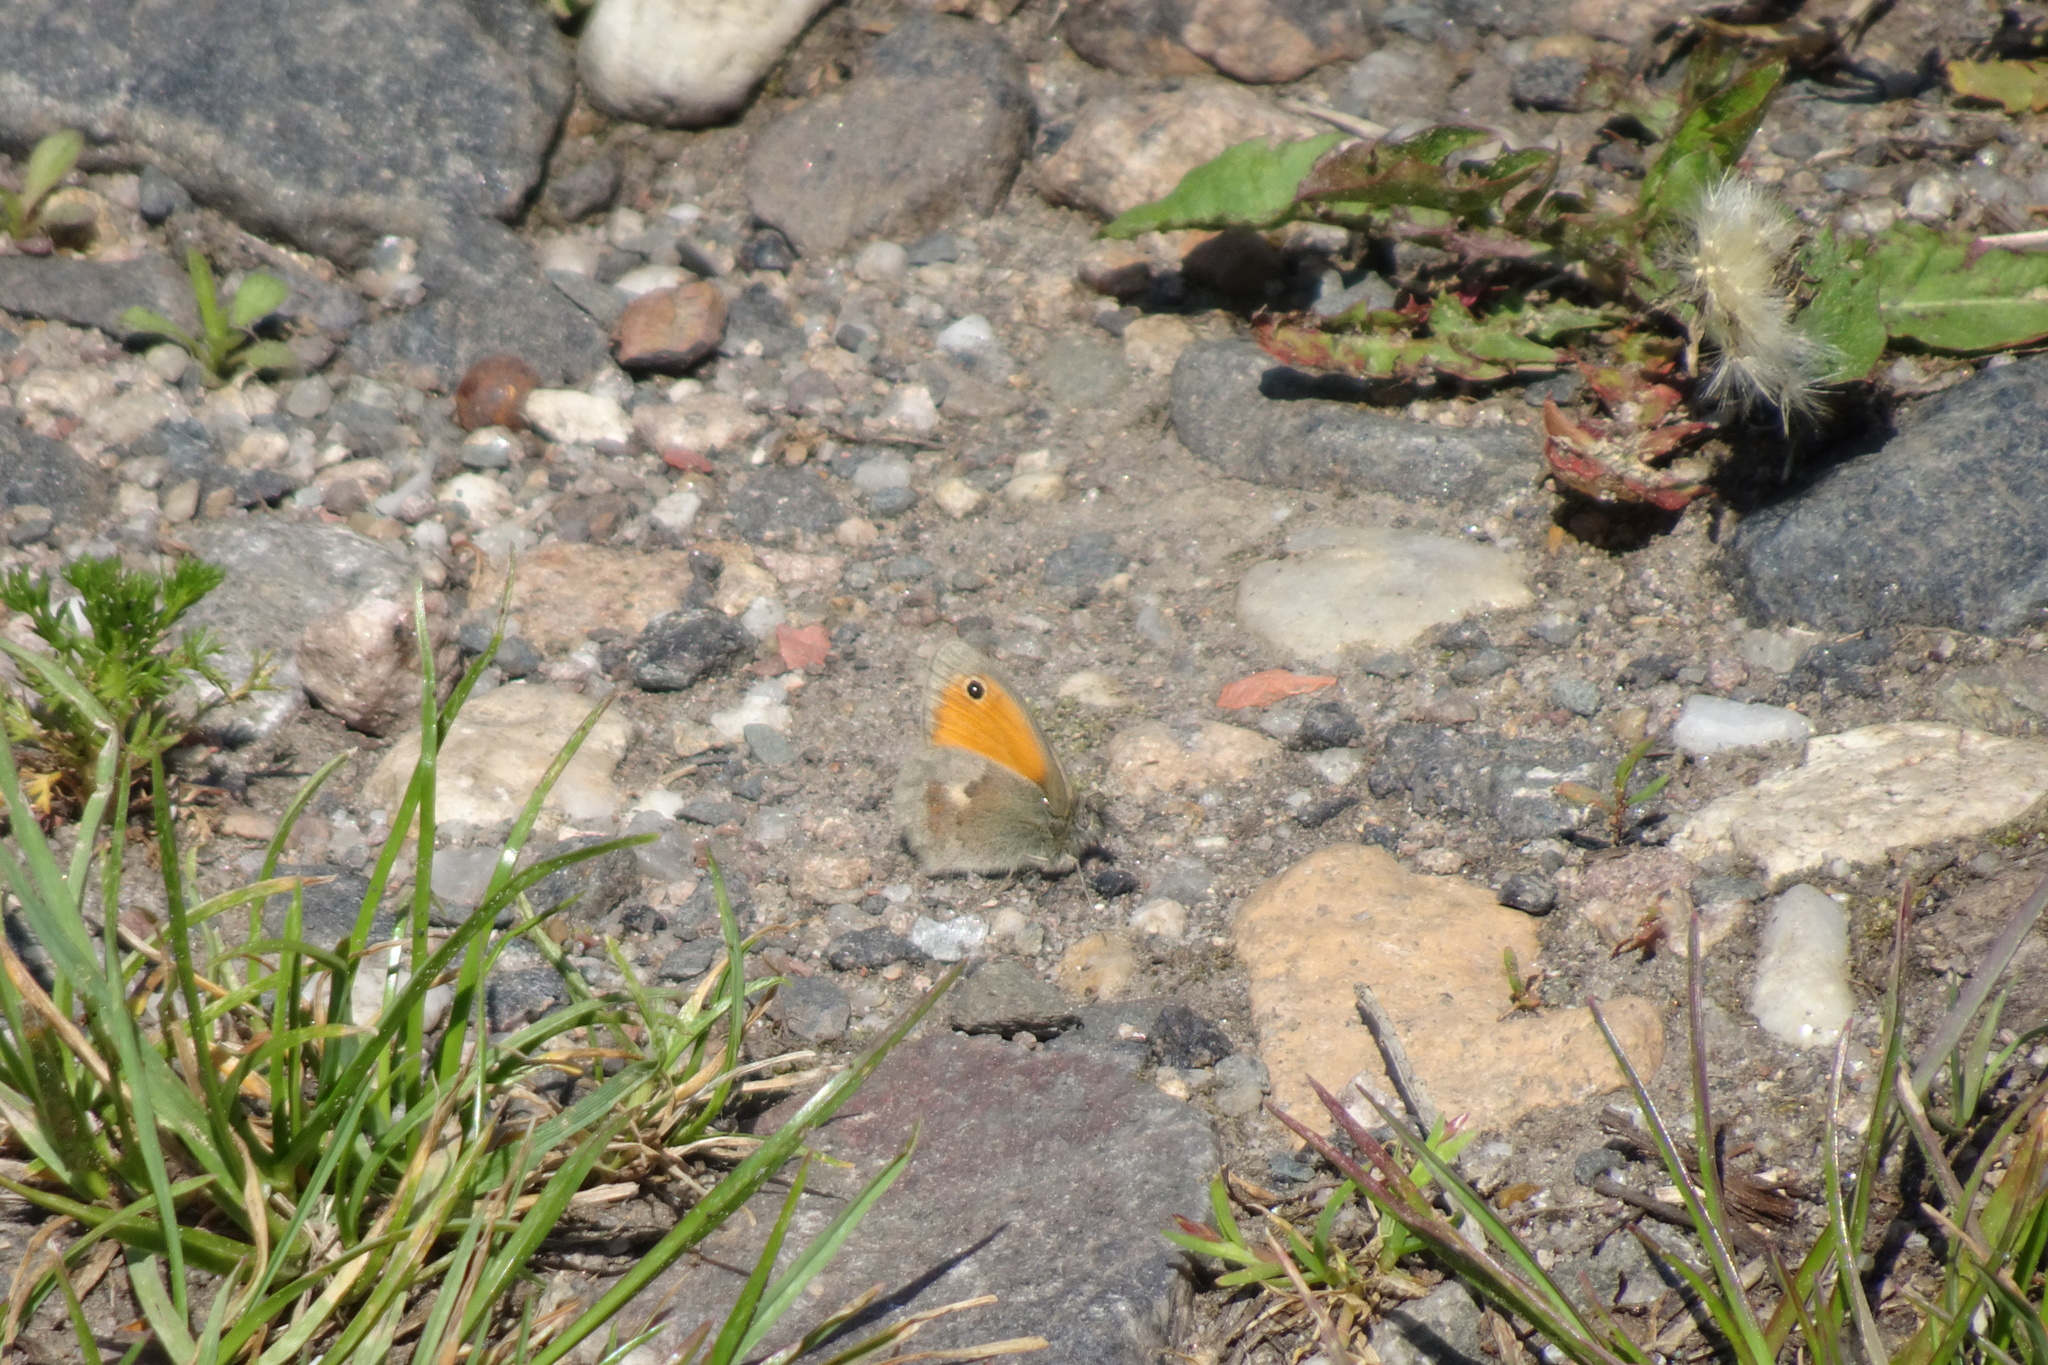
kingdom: Animalia
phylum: Arthropoda
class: Insecta
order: Lepidoptera
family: Nymphalidae
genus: Coenonympha
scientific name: Coenonympha pamphilus
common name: Small heath
